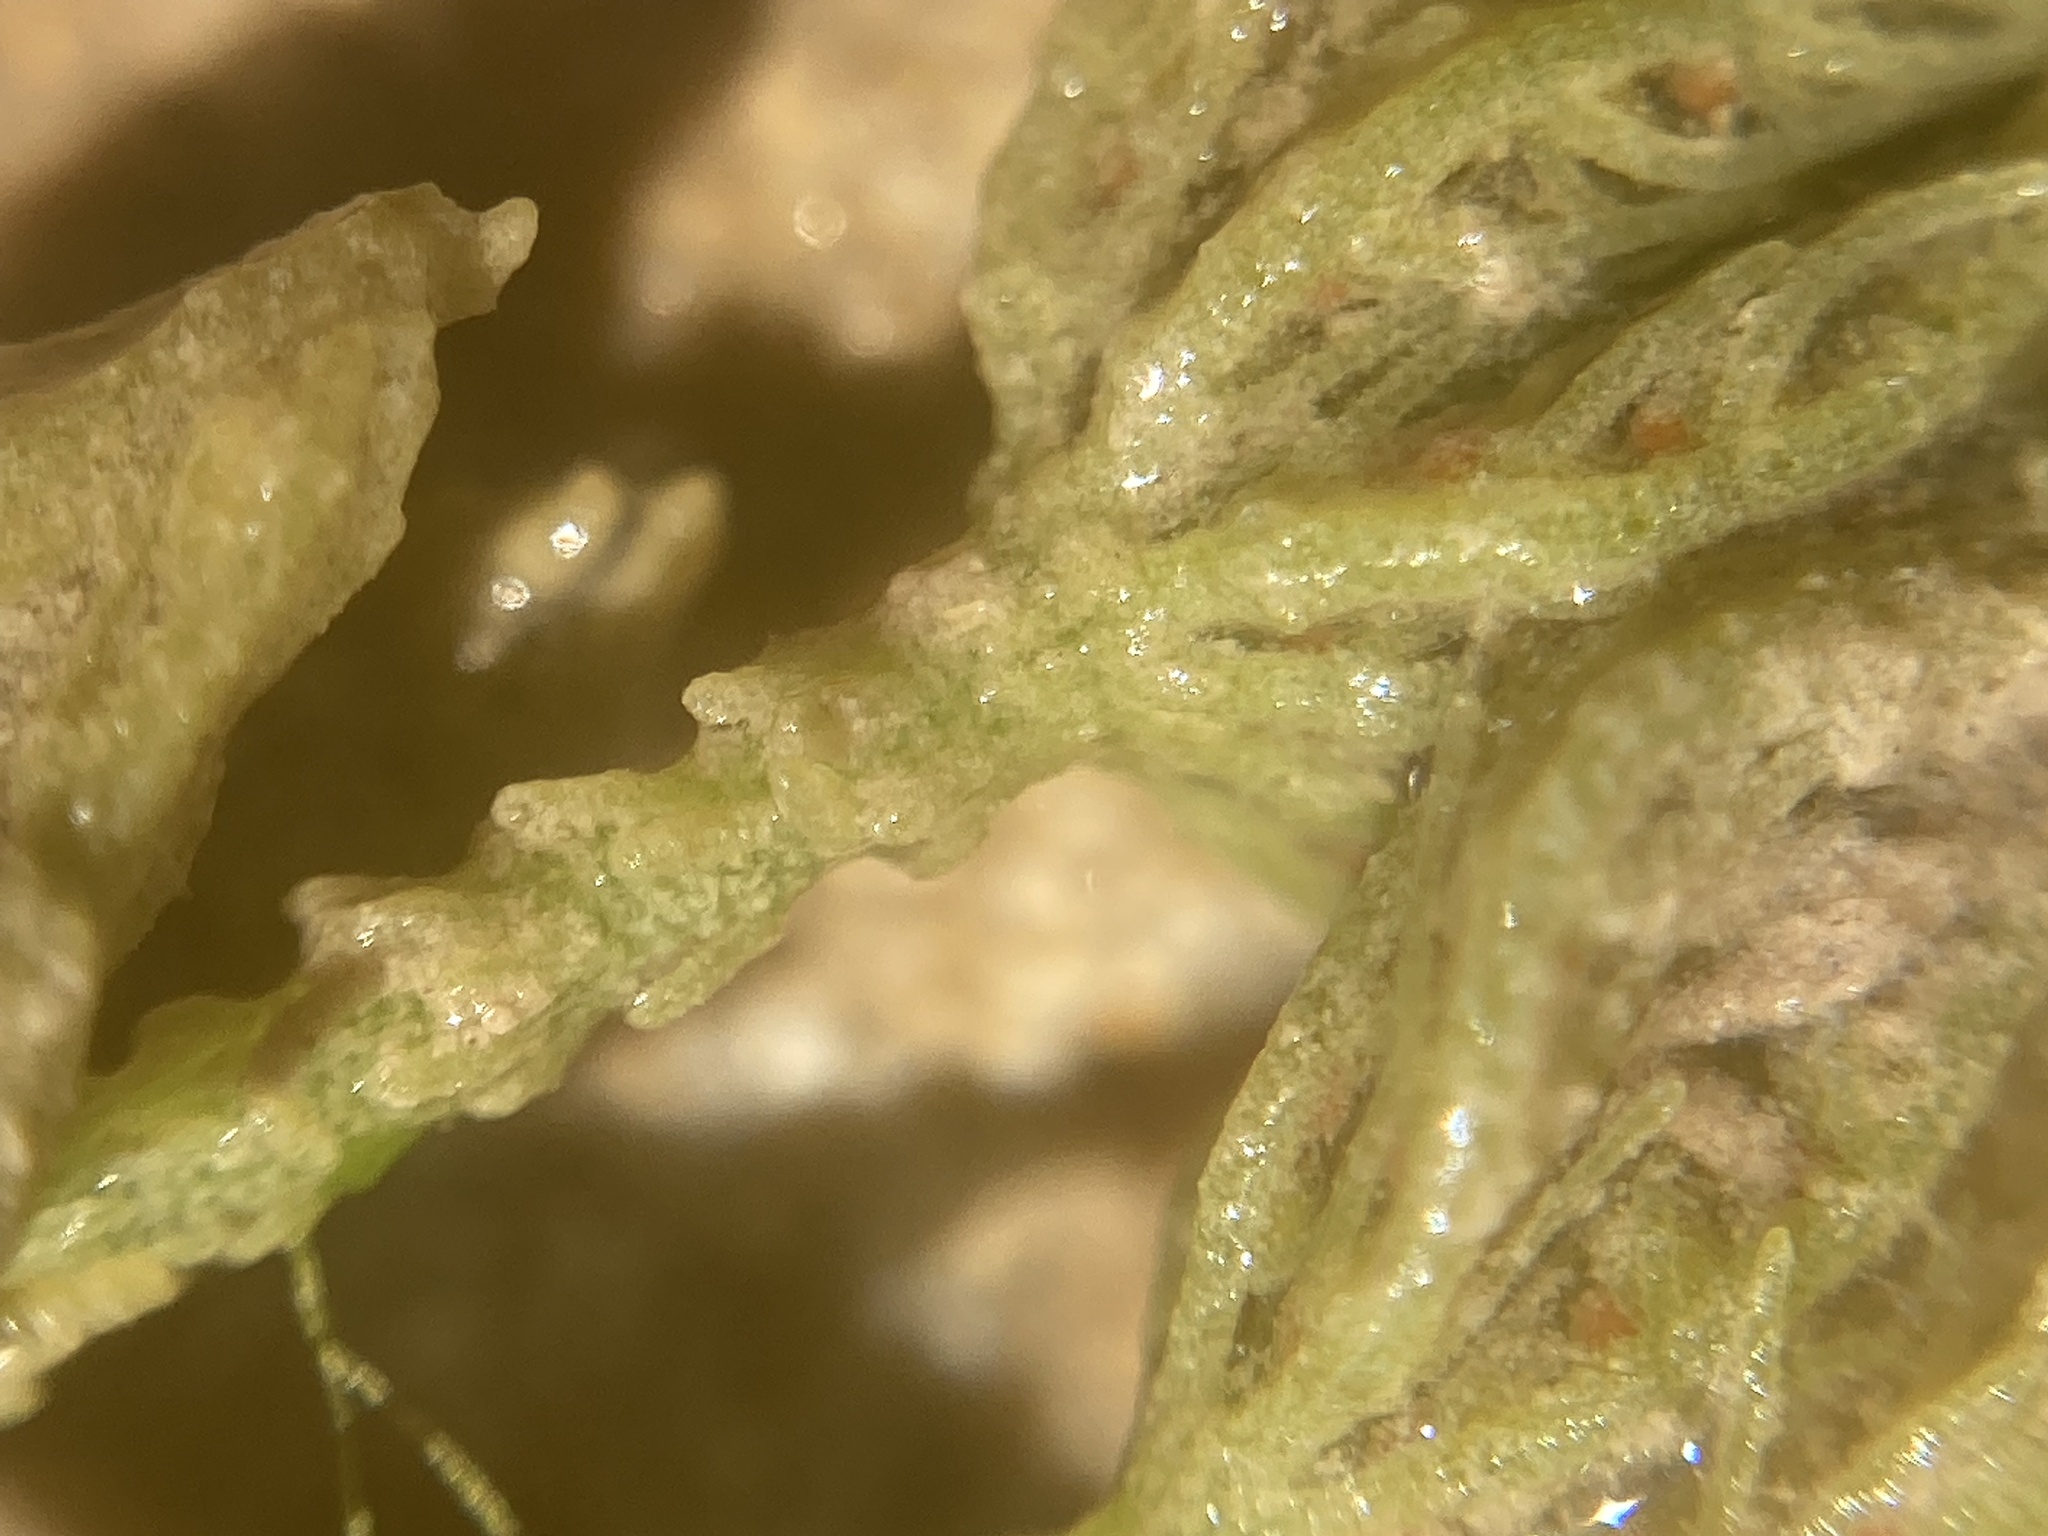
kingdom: Plantae
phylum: Charophyta
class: Charophyceae
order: Charales
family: Characeae
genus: Chara
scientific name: Chara vulgaris
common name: Common stonewort
